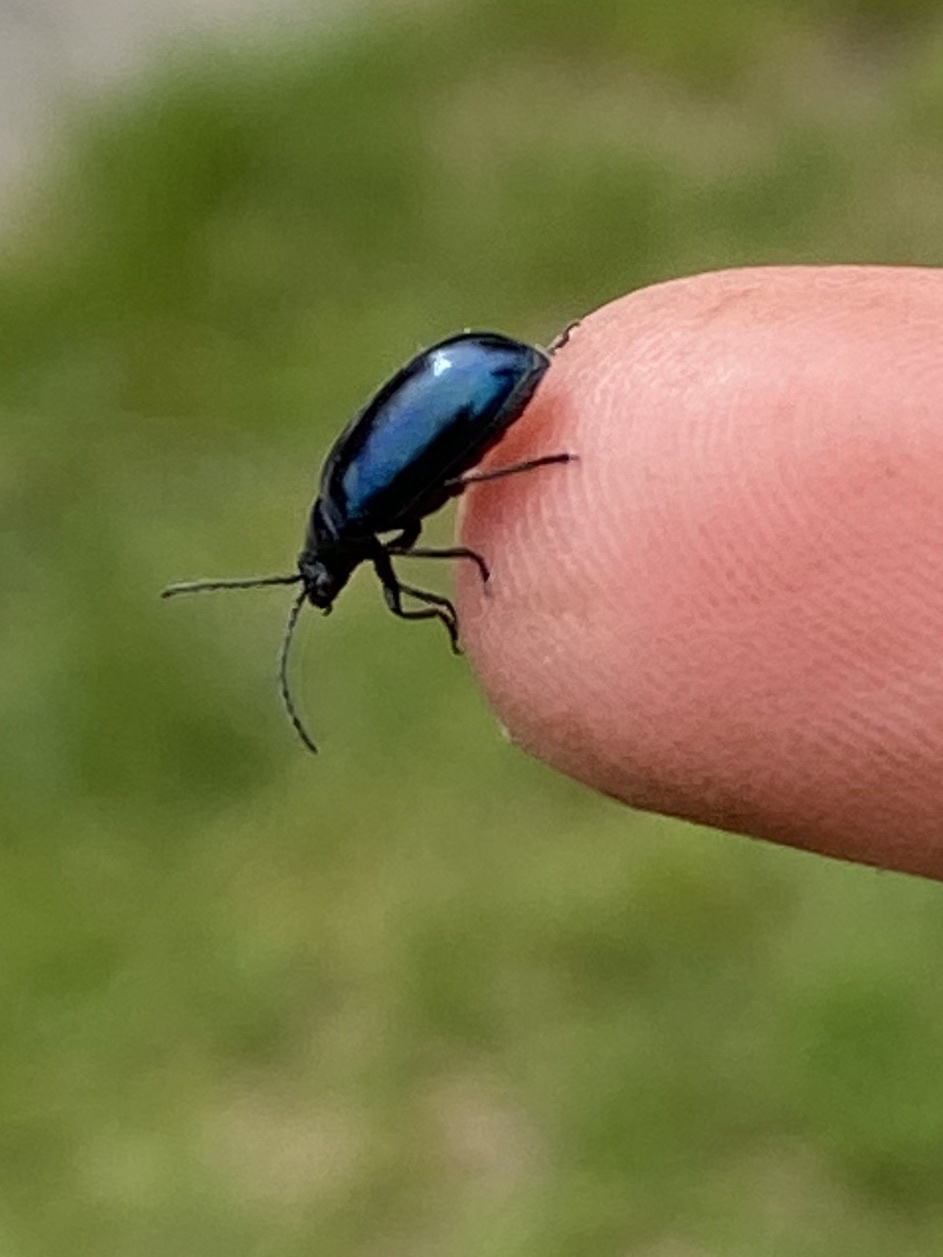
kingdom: Animalia
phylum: Arthropoda
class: Insecta
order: Coleoptera
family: Chrysomelidae
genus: Agelastica
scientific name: Agelastica alni
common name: Alder leaf beetle
